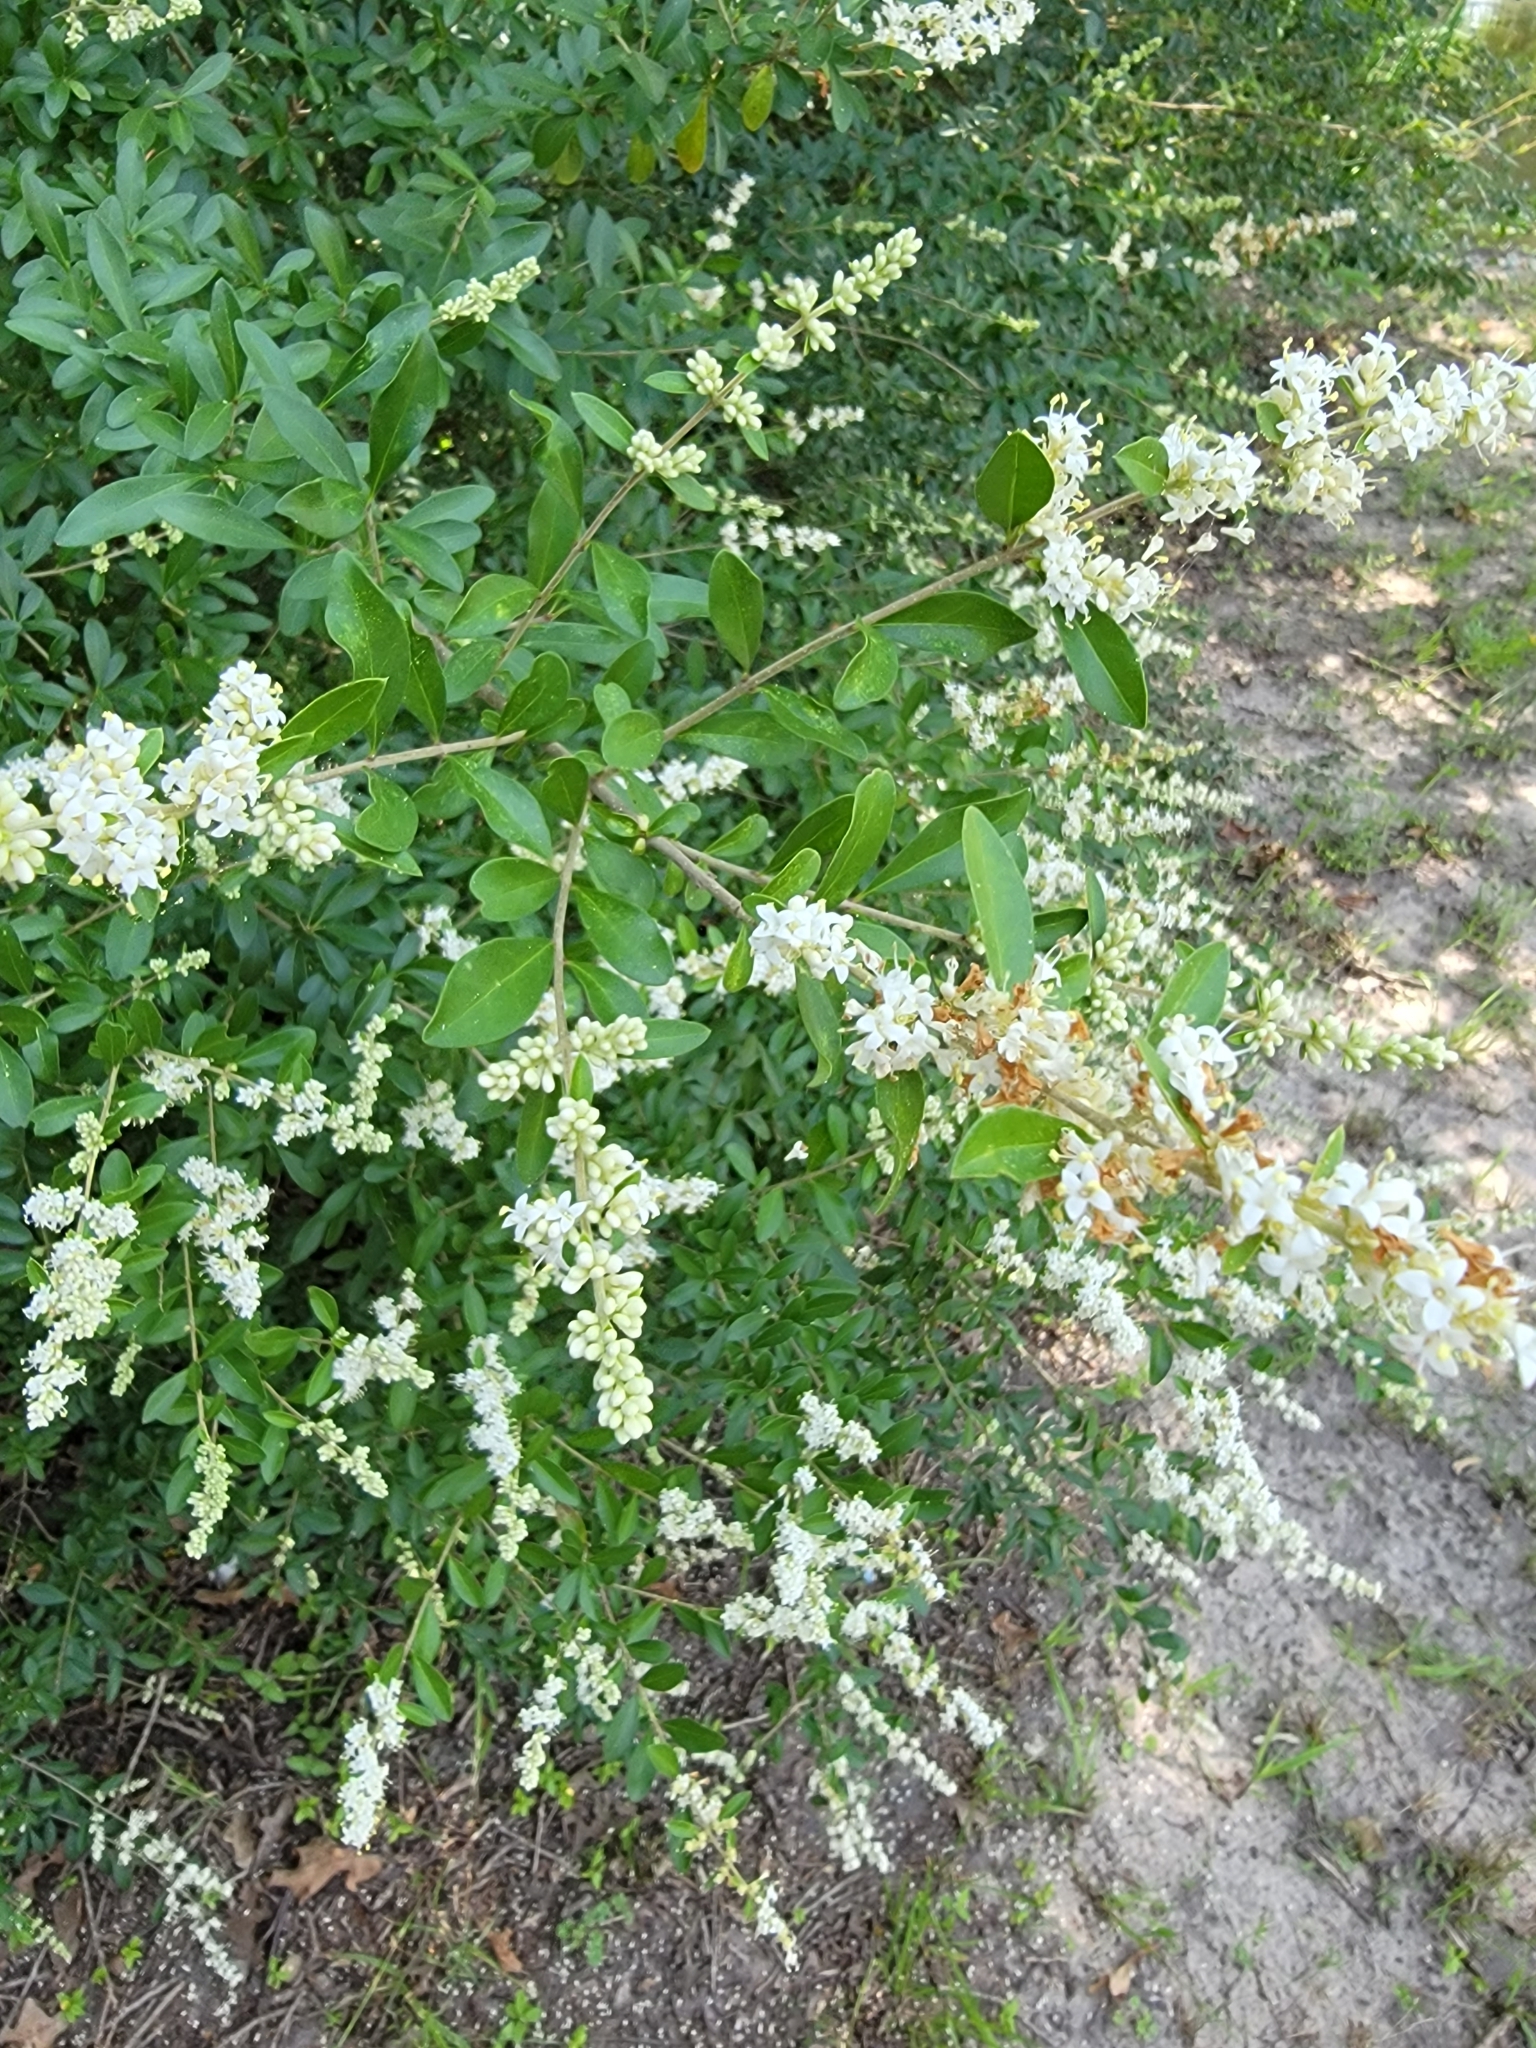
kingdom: Plantae
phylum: Tracheophyta
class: Magnoliopsida
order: Lamiales
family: Oleaceae
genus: Ligustrum
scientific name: Ligustrum sinense
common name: Chinese privet
